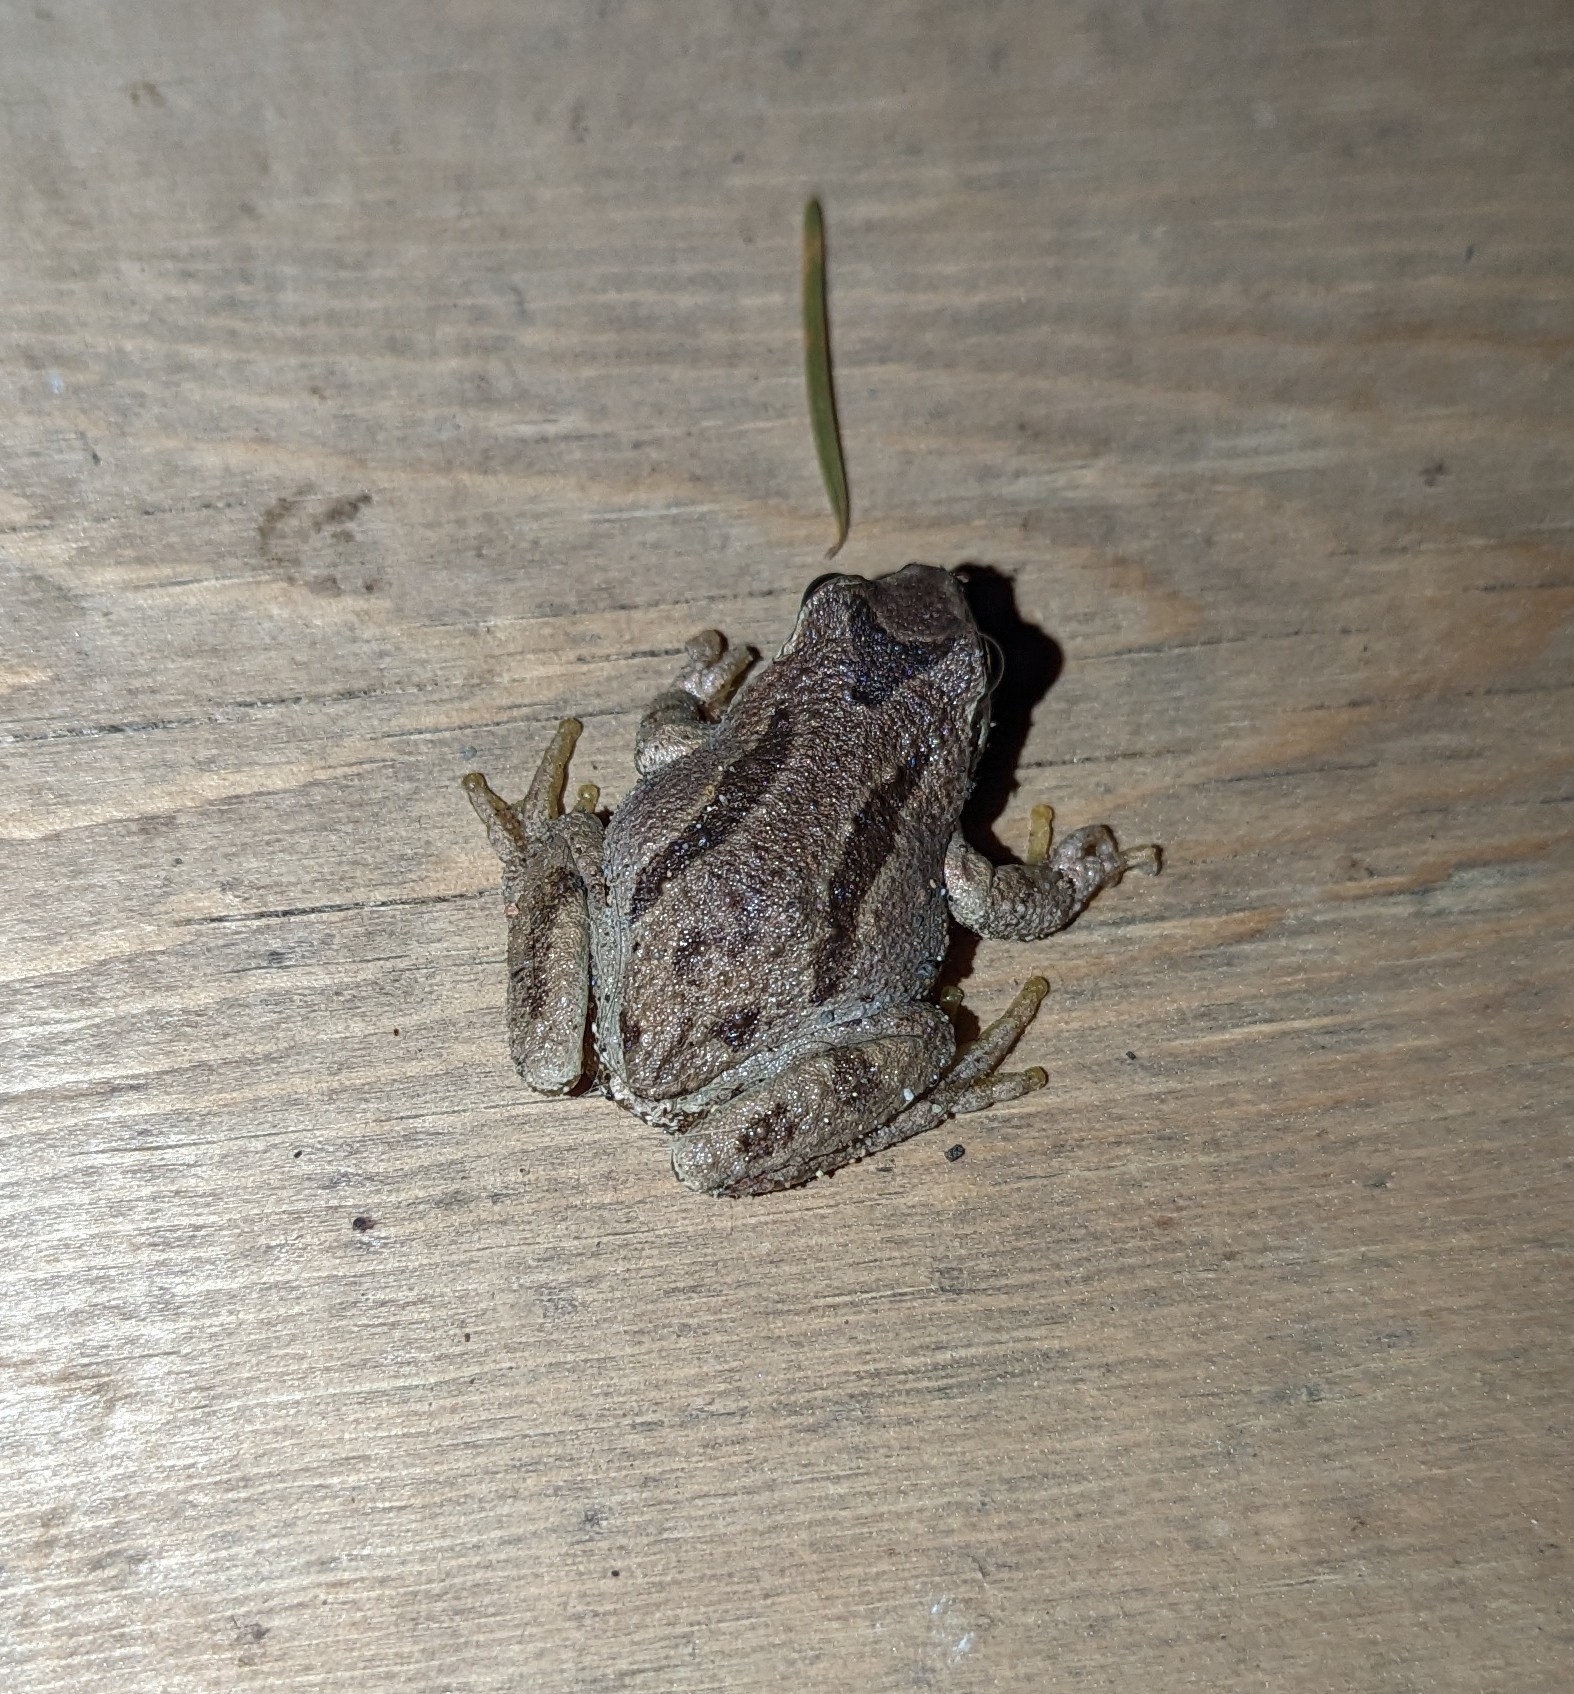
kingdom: Animalia
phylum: Chordata
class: Amphibia
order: Anura
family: Hylidae
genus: Pseudacris
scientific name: Pseudacris regilla
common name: Pacific chorus frog
